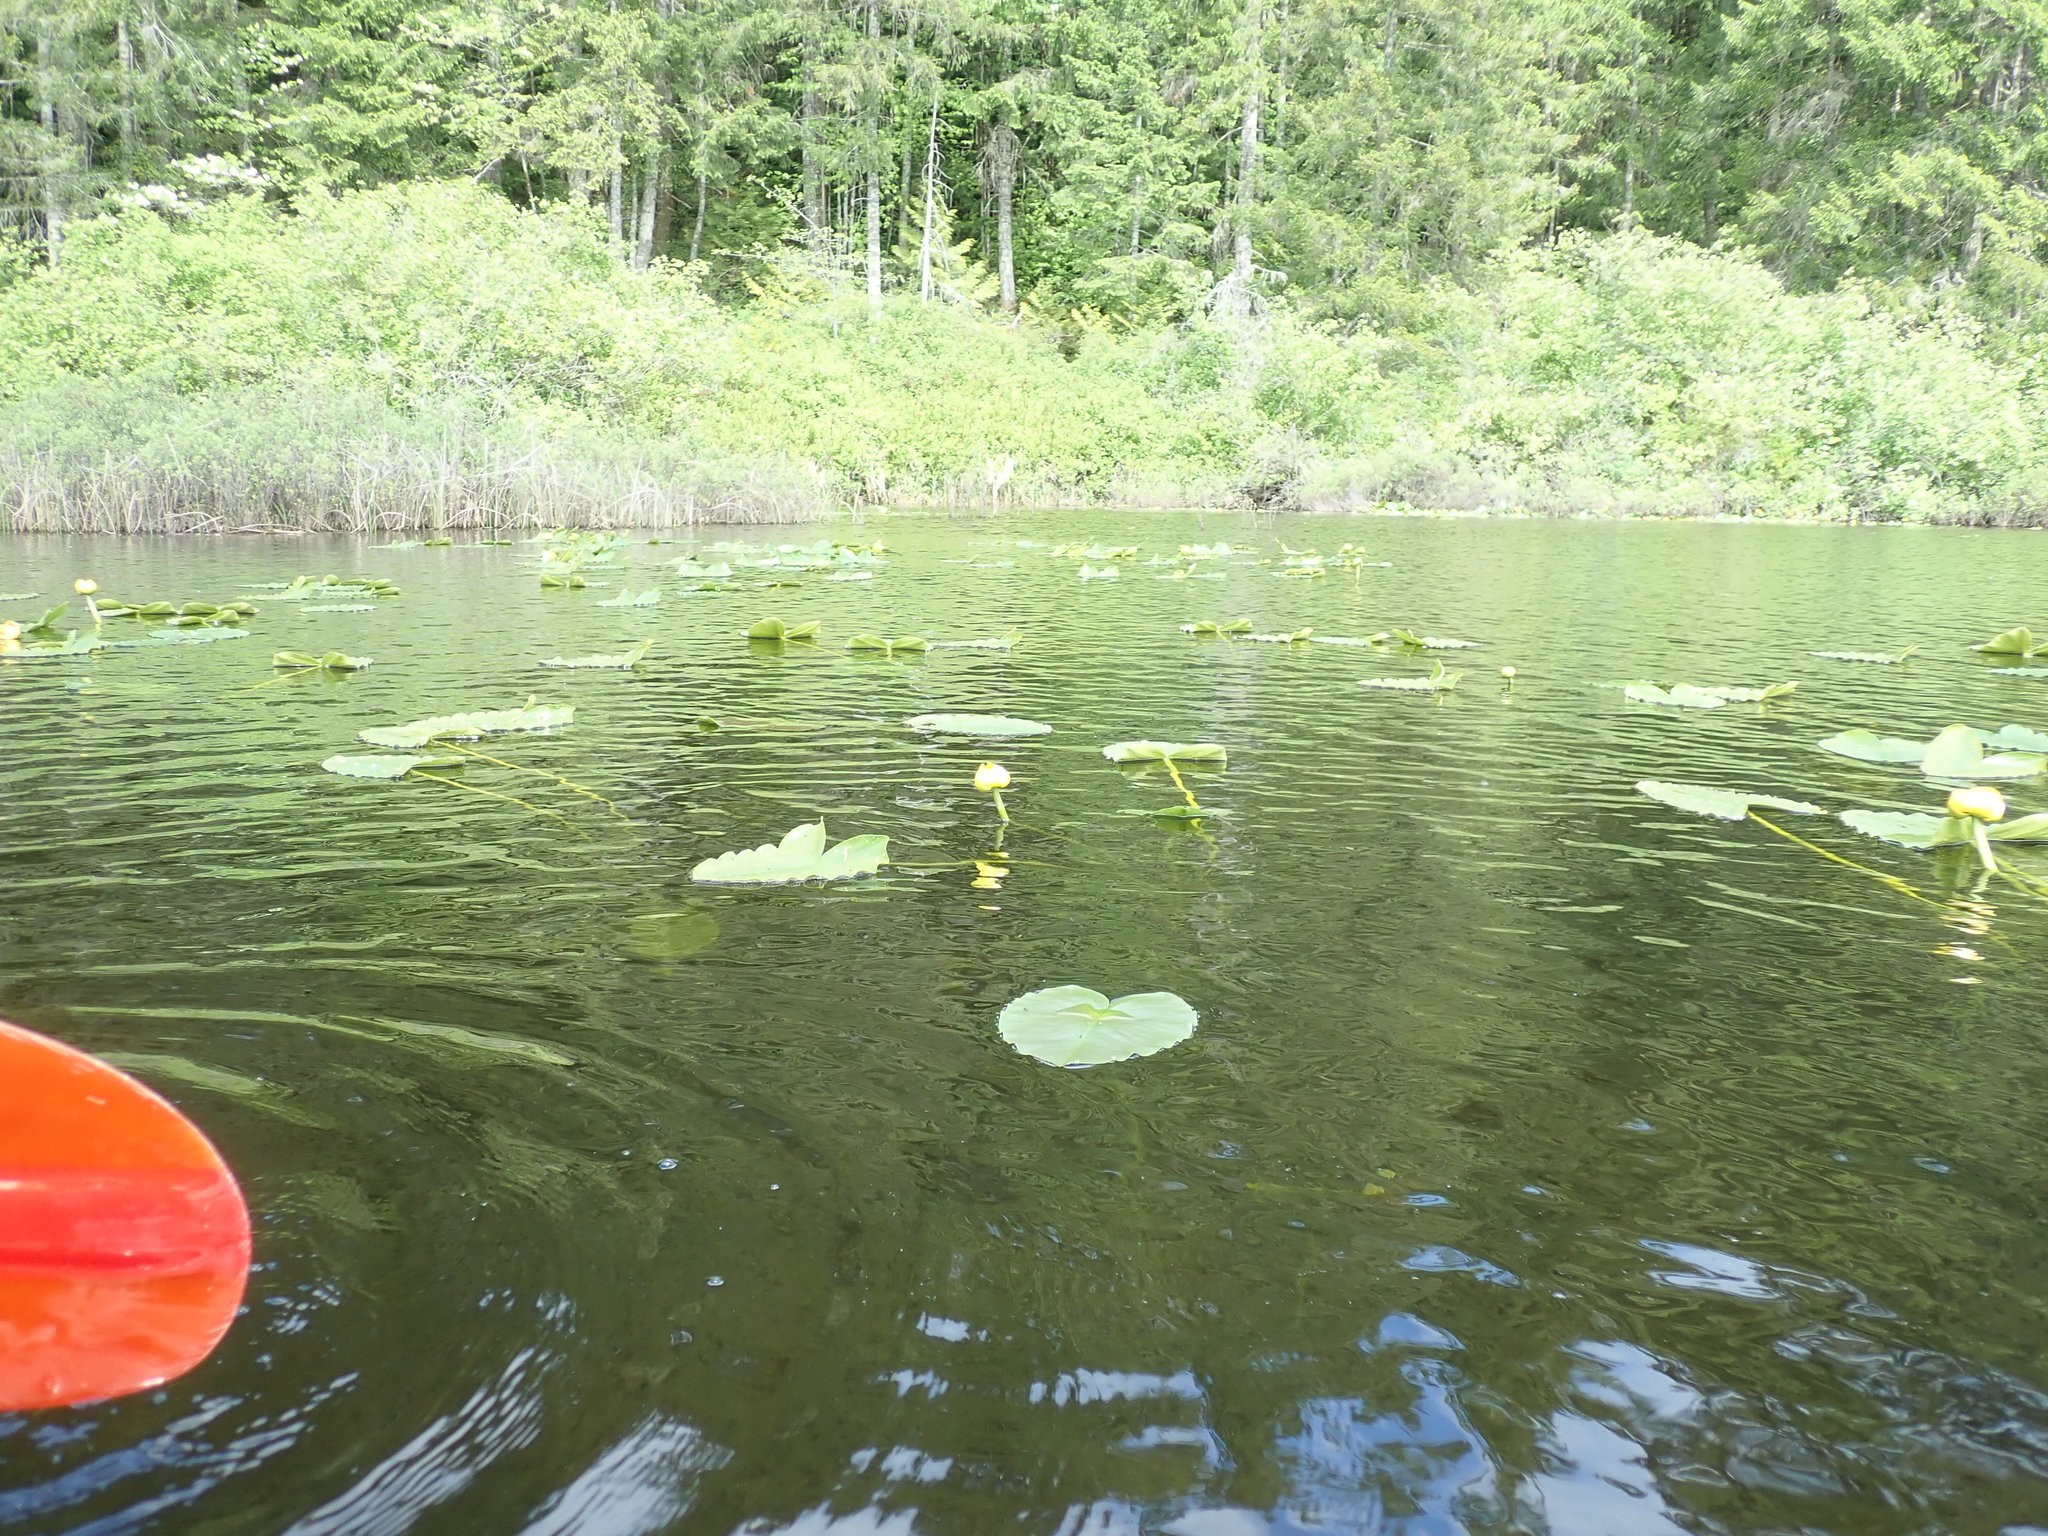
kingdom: Plantae
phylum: Tracheophyta
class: Magnoliopsida
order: Nymphaeales
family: Nymphaeaceae
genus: Nuphar
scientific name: Nuphar polysepala
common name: Rocky mountain cow-lily
